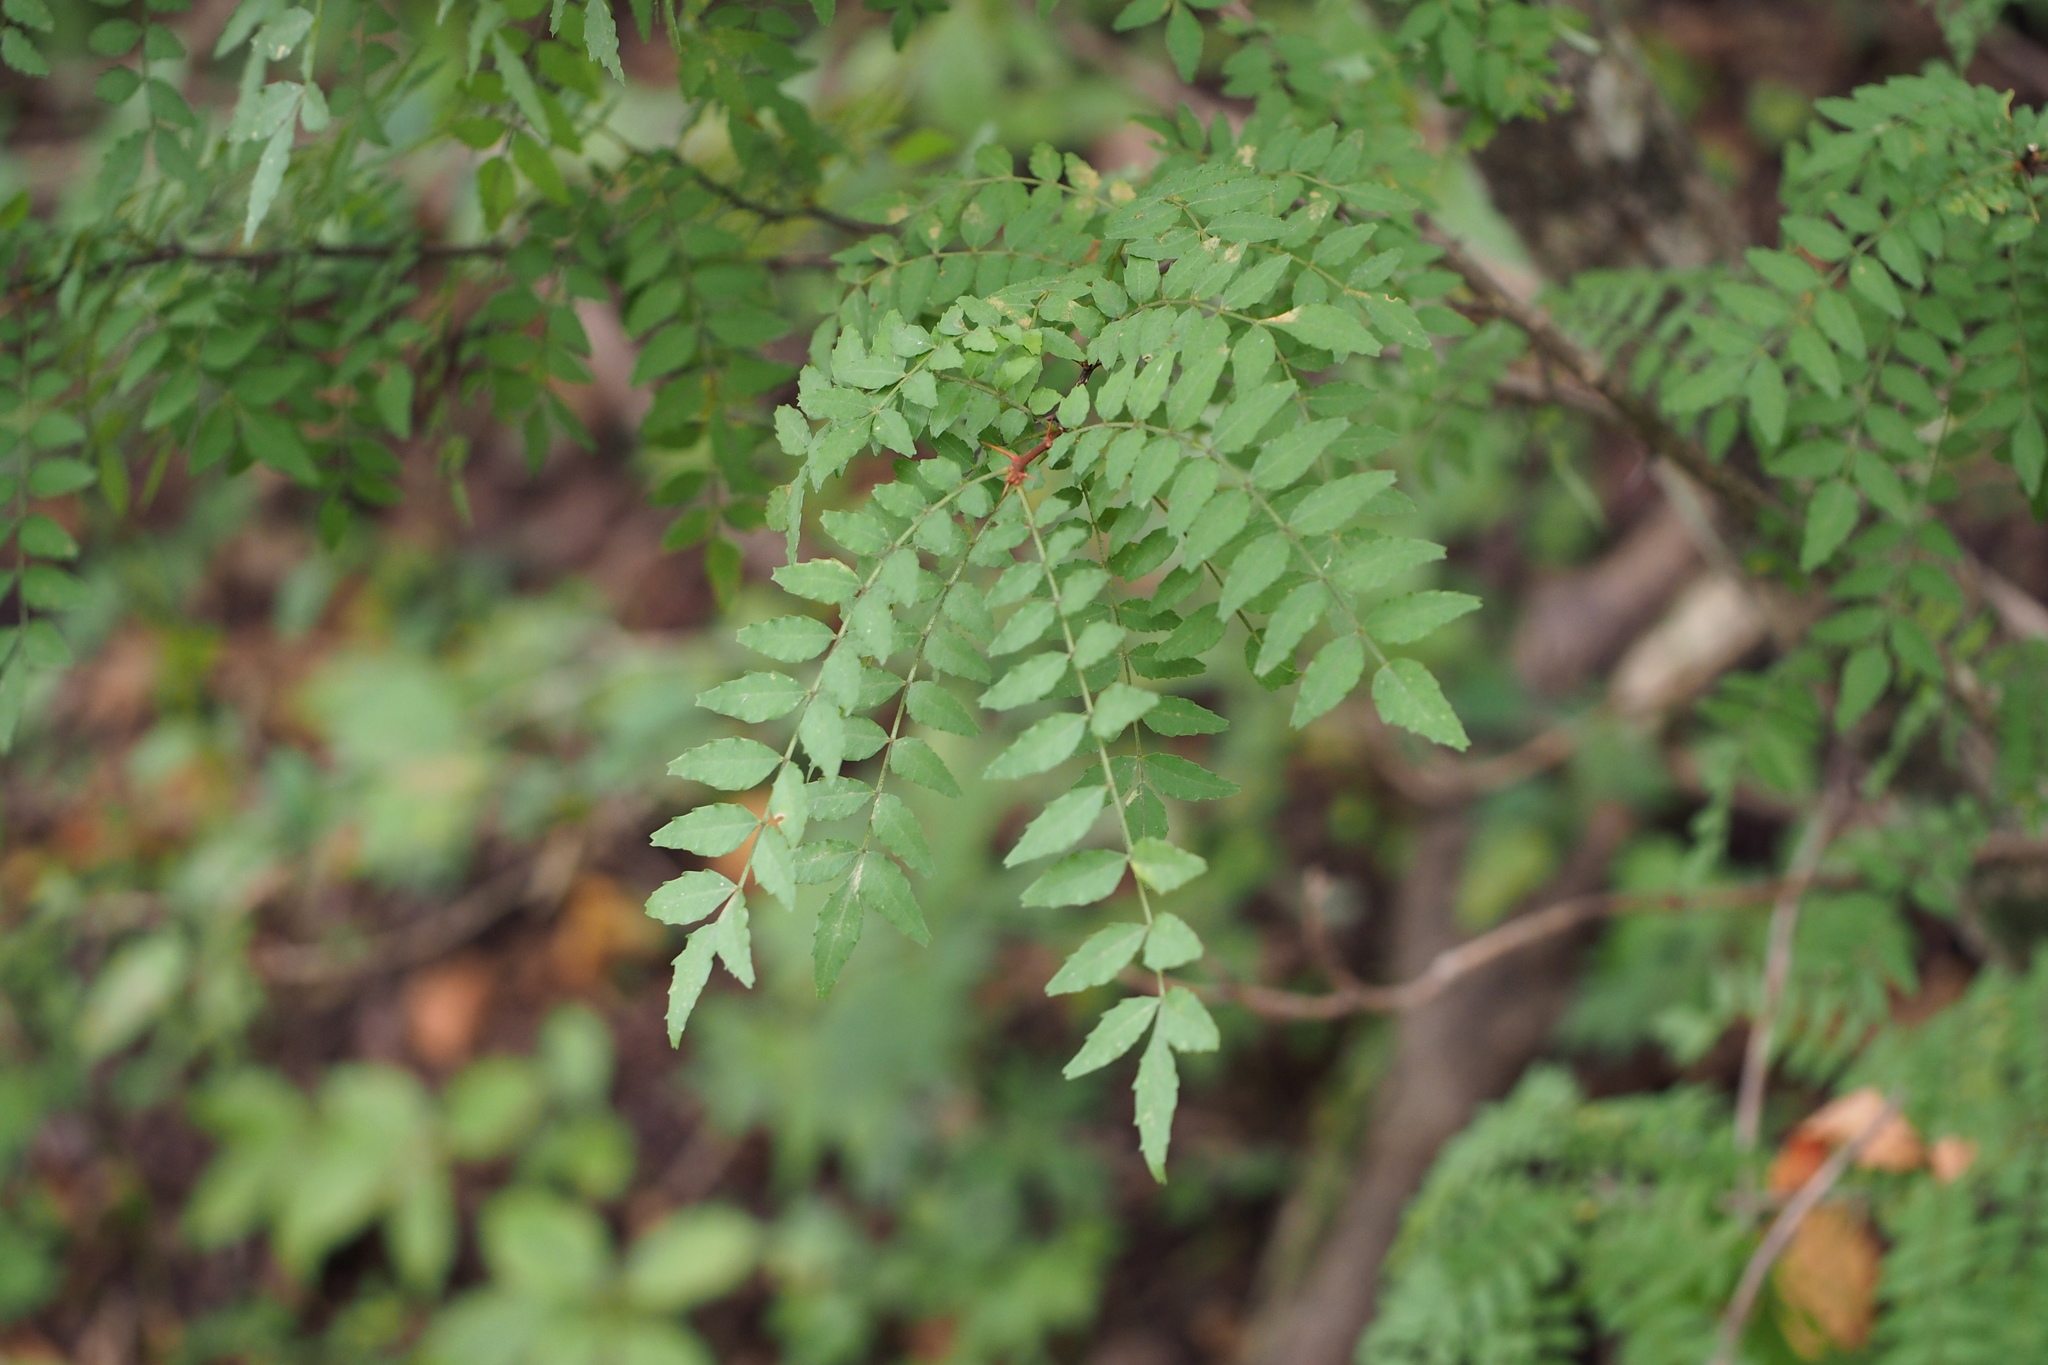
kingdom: Plantae
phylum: Tracheophyta
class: Magnoliopsida
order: Sapindales
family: Rutaceae
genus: Zanthoxylum
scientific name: Zanthoxylum piperitum
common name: Japanese-pepper
